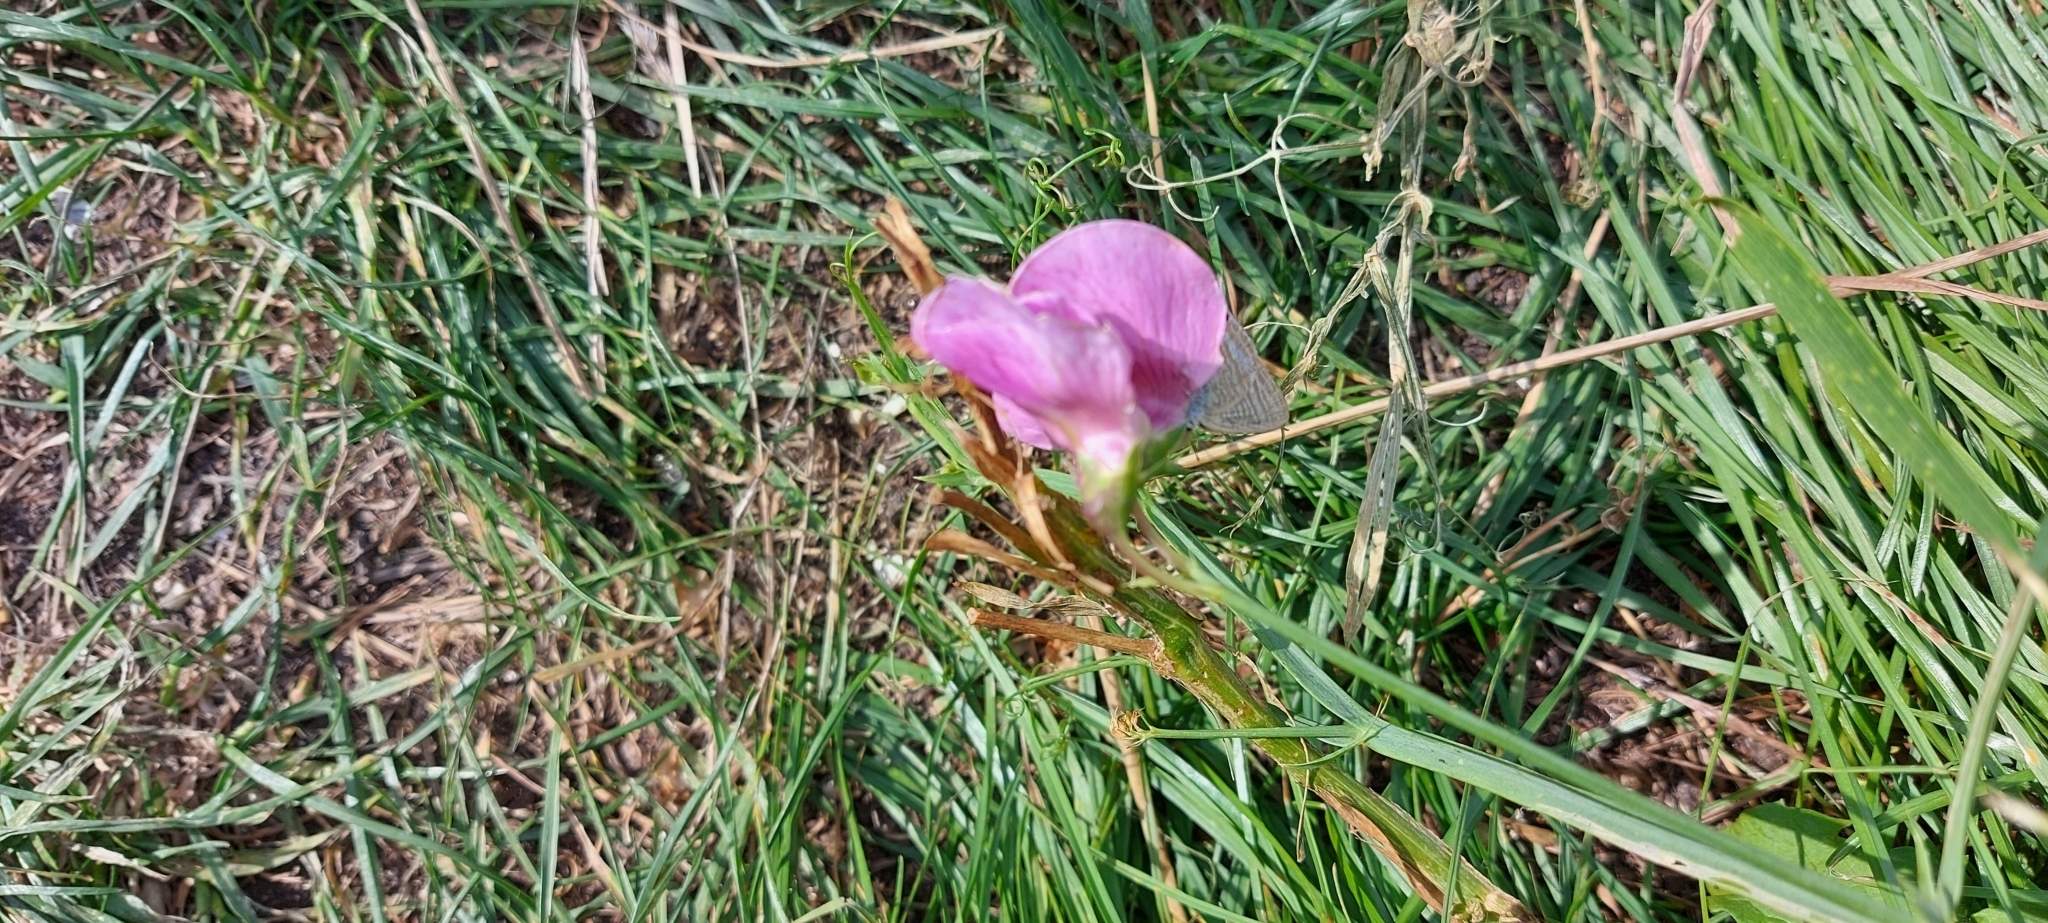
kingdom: Plantae
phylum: Tracheophyta
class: Magnoliopsida
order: Fabales
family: Fabaceae
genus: Lathyrus
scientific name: Lathyrus latifolius
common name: Perennial pea
